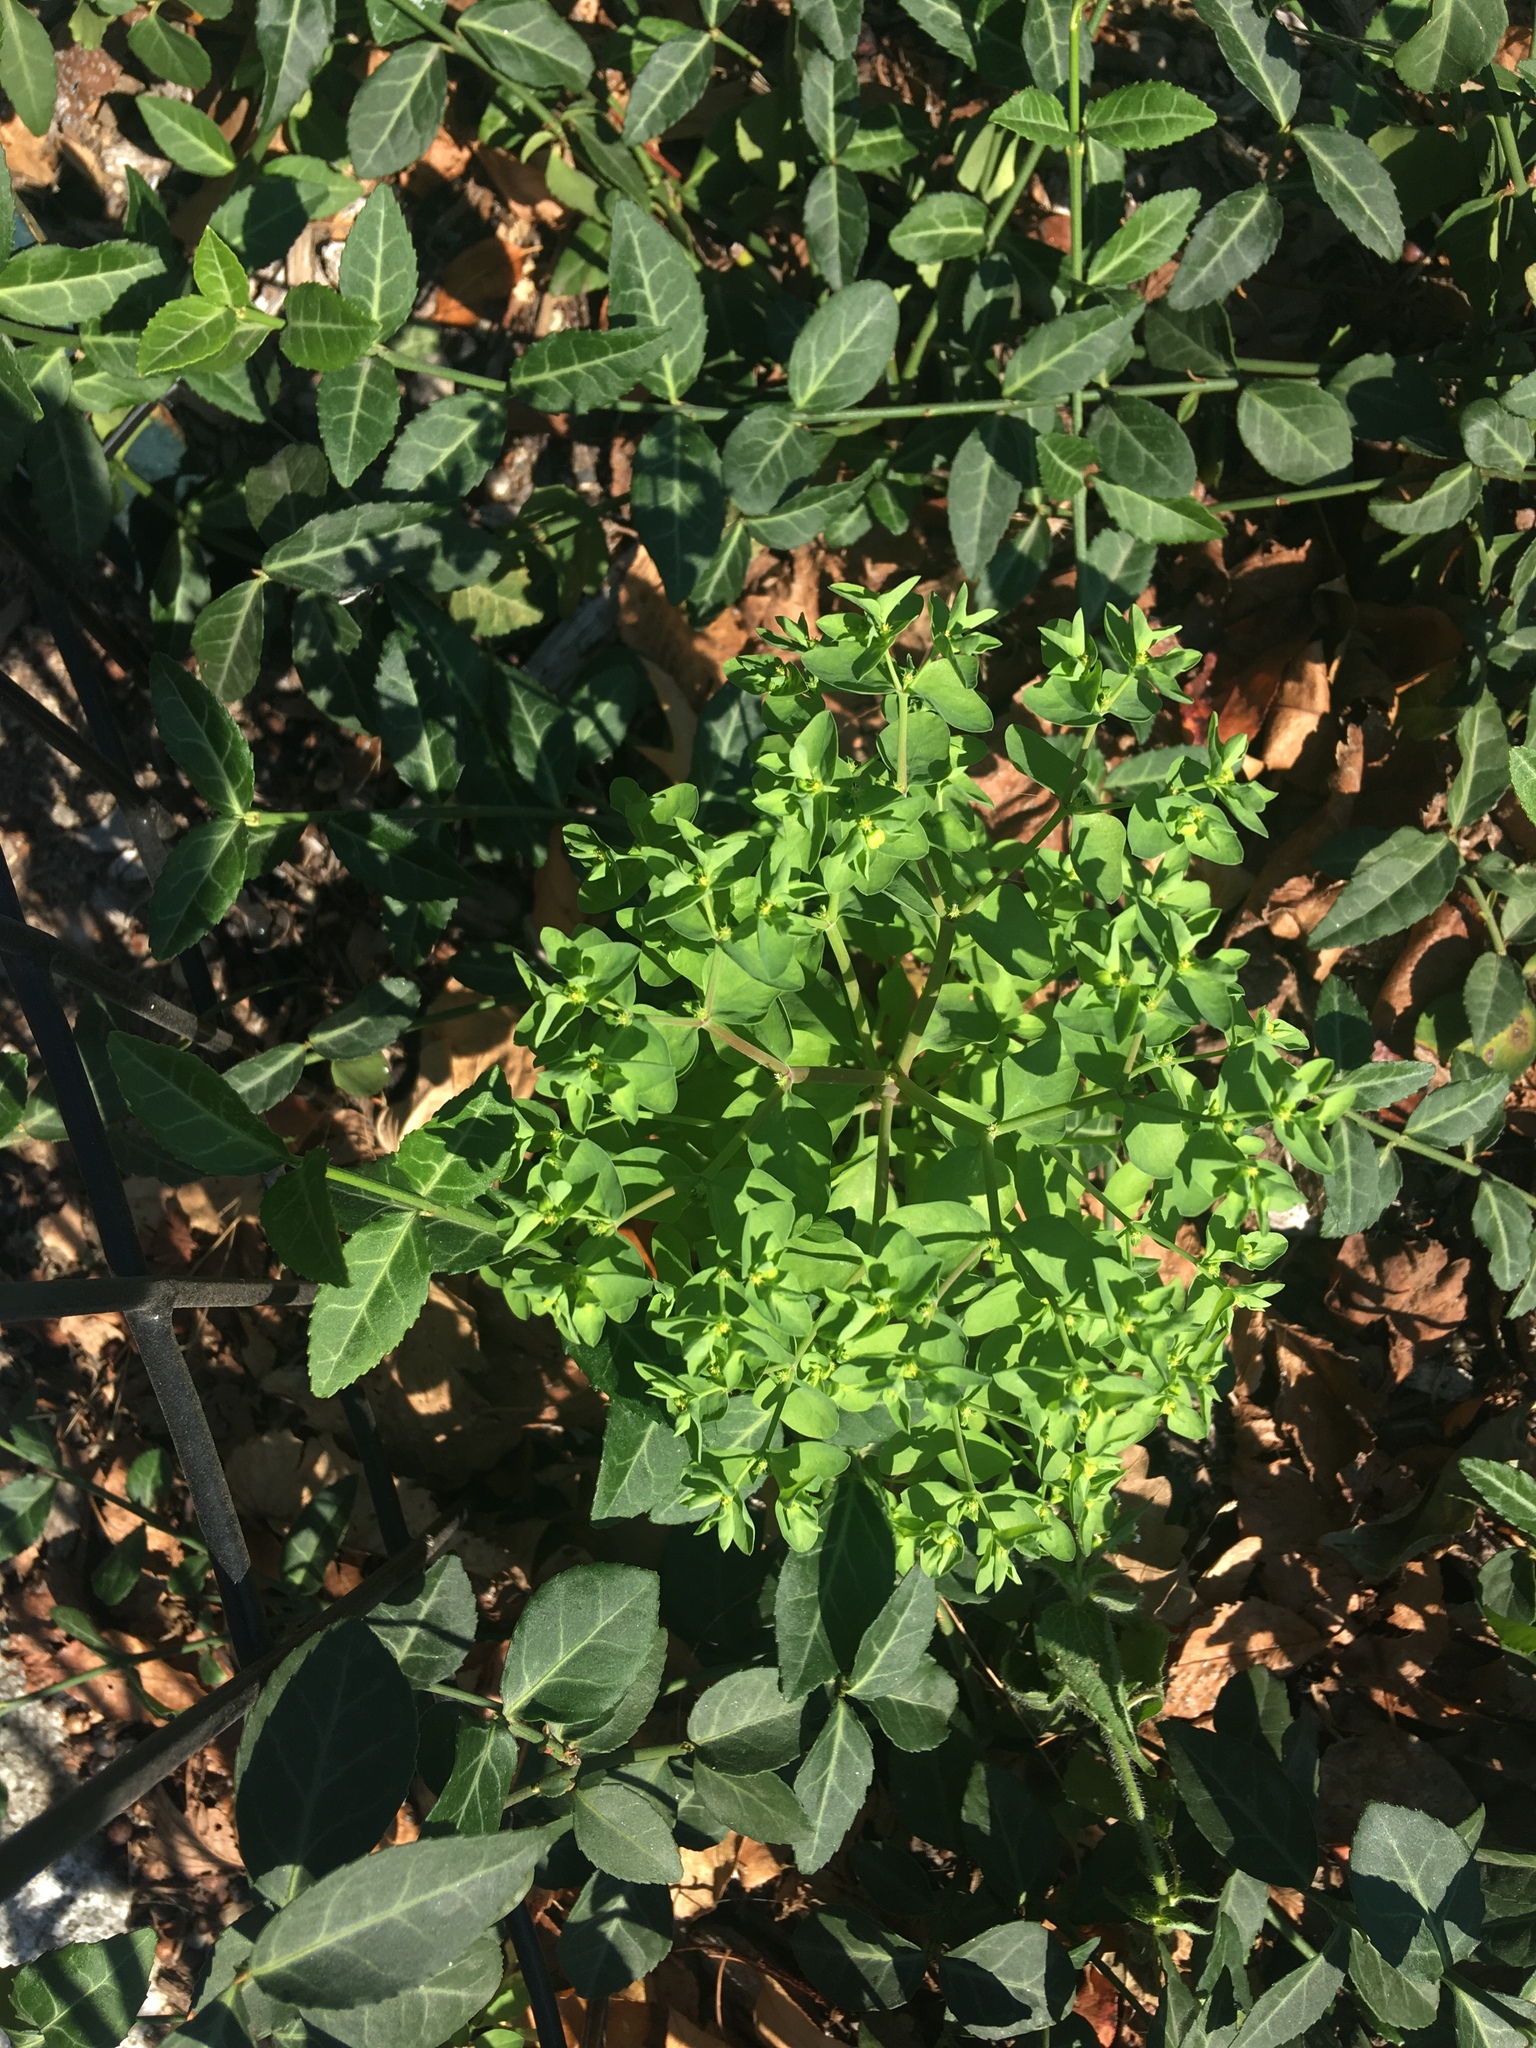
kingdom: Plantae
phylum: Tracheophyta
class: Magnoliopsida
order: Malpighiales
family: Euphorbiaceae
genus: Euphorbia
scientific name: Euphorbia peplus
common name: Petty spurge
